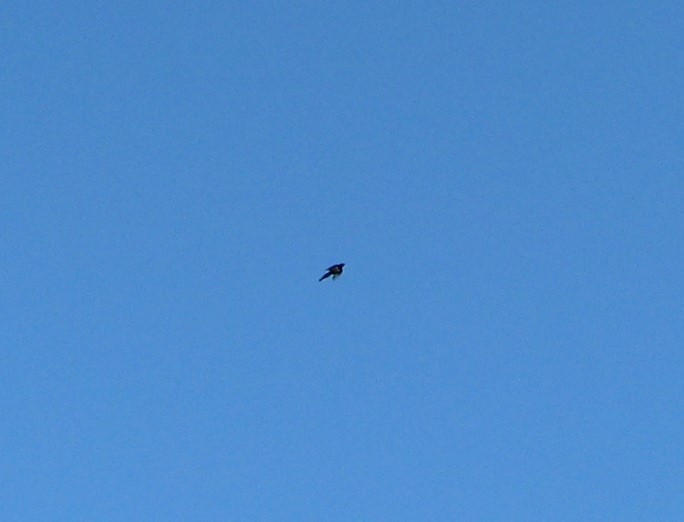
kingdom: Animalia
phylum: Chordata
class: Aves
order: Passeriformes
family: Corvidae
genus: Pica
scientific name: Pica pica
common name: Eurasian magpie
